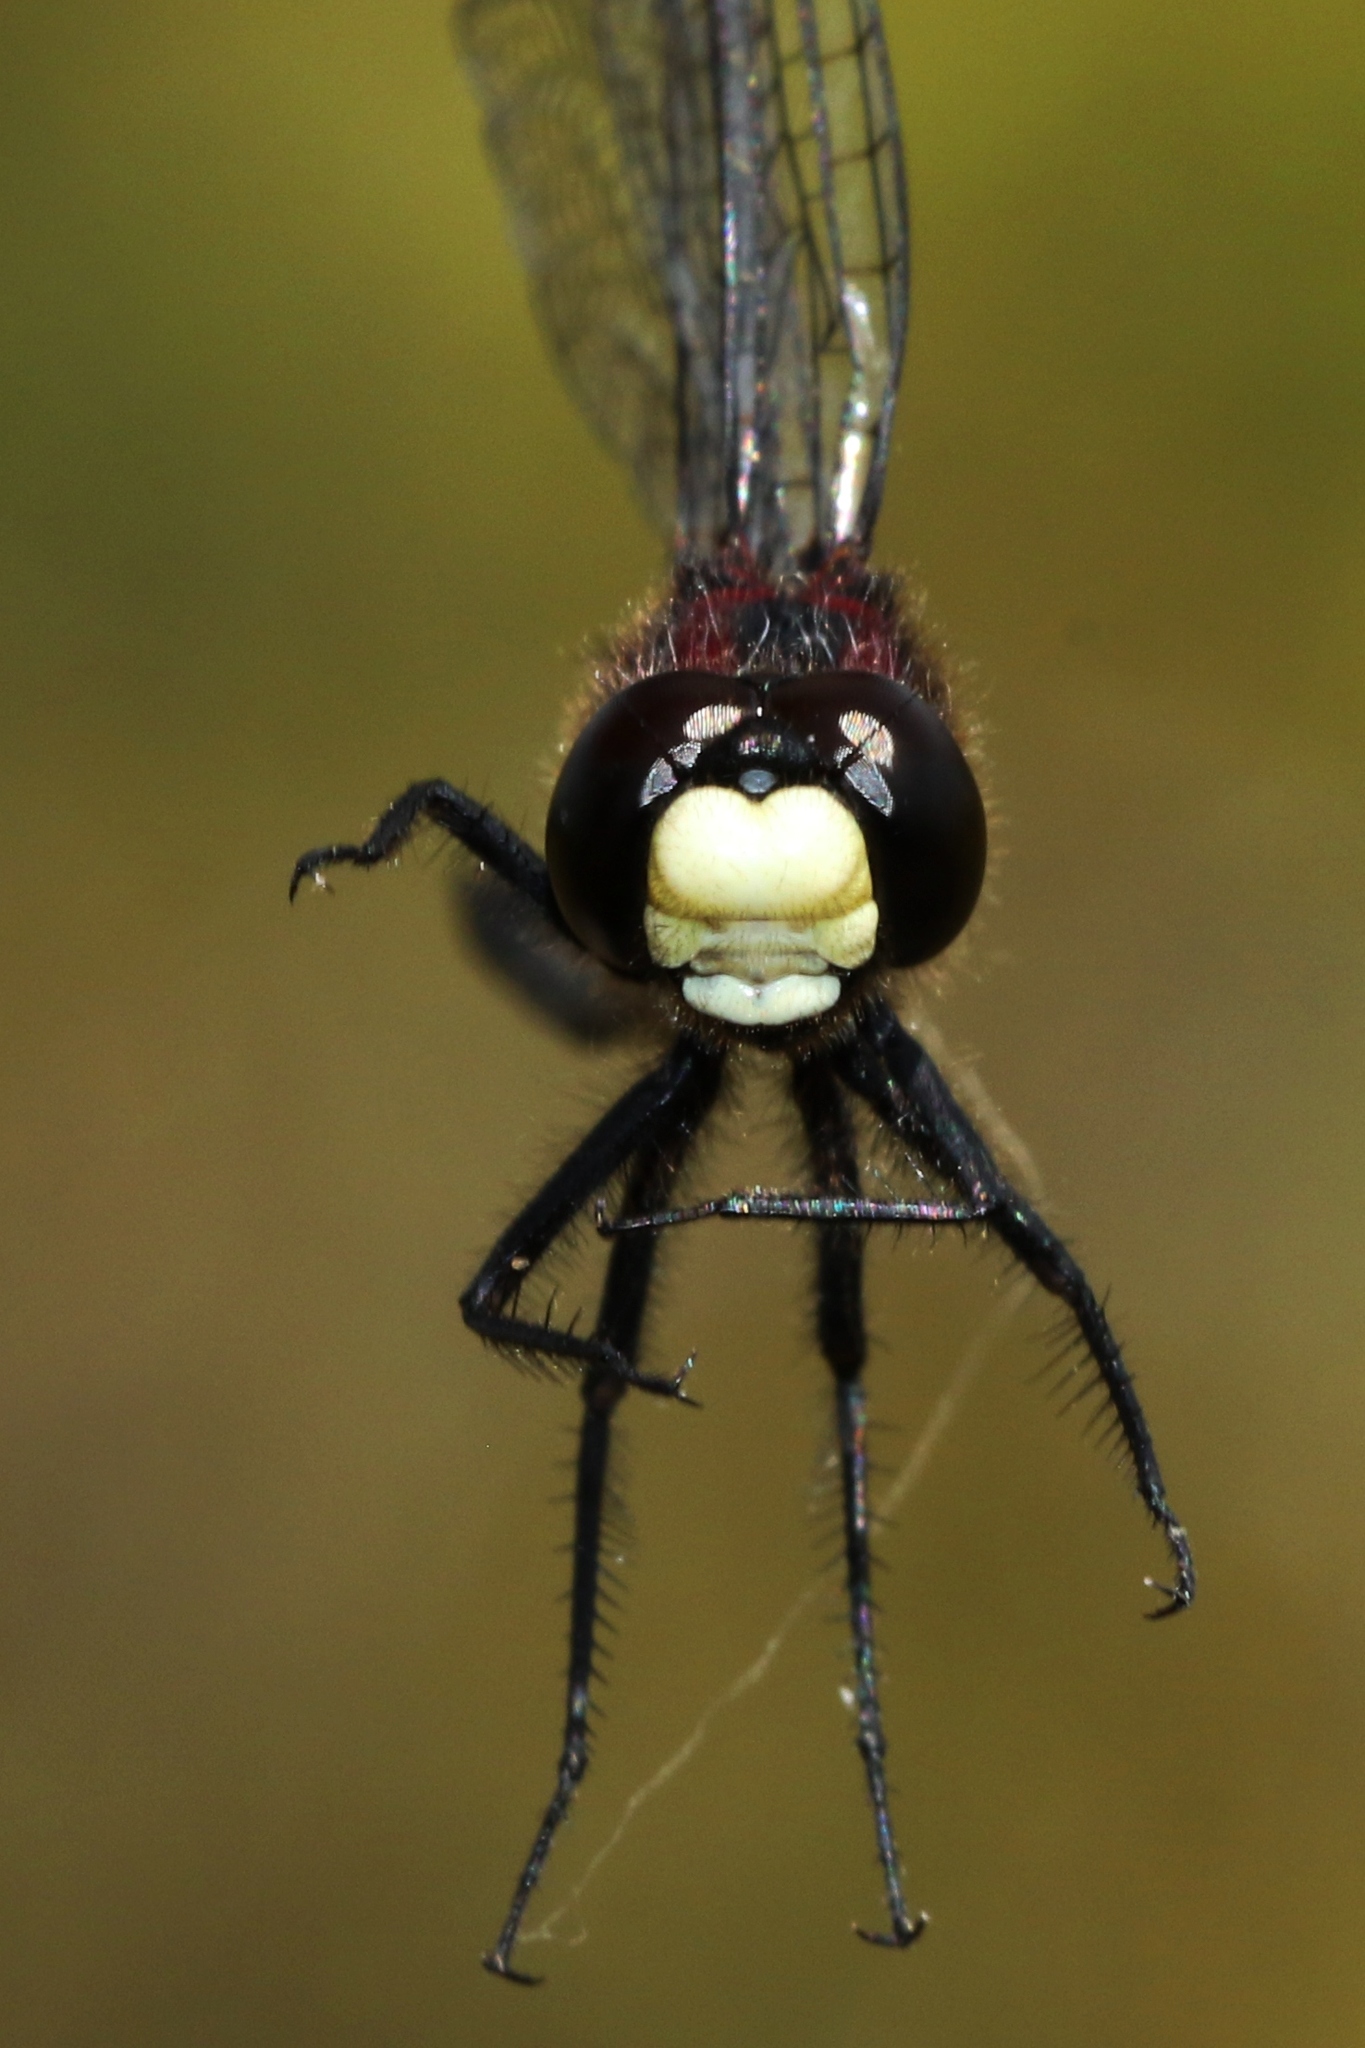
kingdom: Animalia
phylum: Arthropoda
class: Insecta
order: Odonata
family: Libellulidae
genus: Leucorrhinia
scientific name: Leucorrhinia patricia
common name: Canada whiteface
